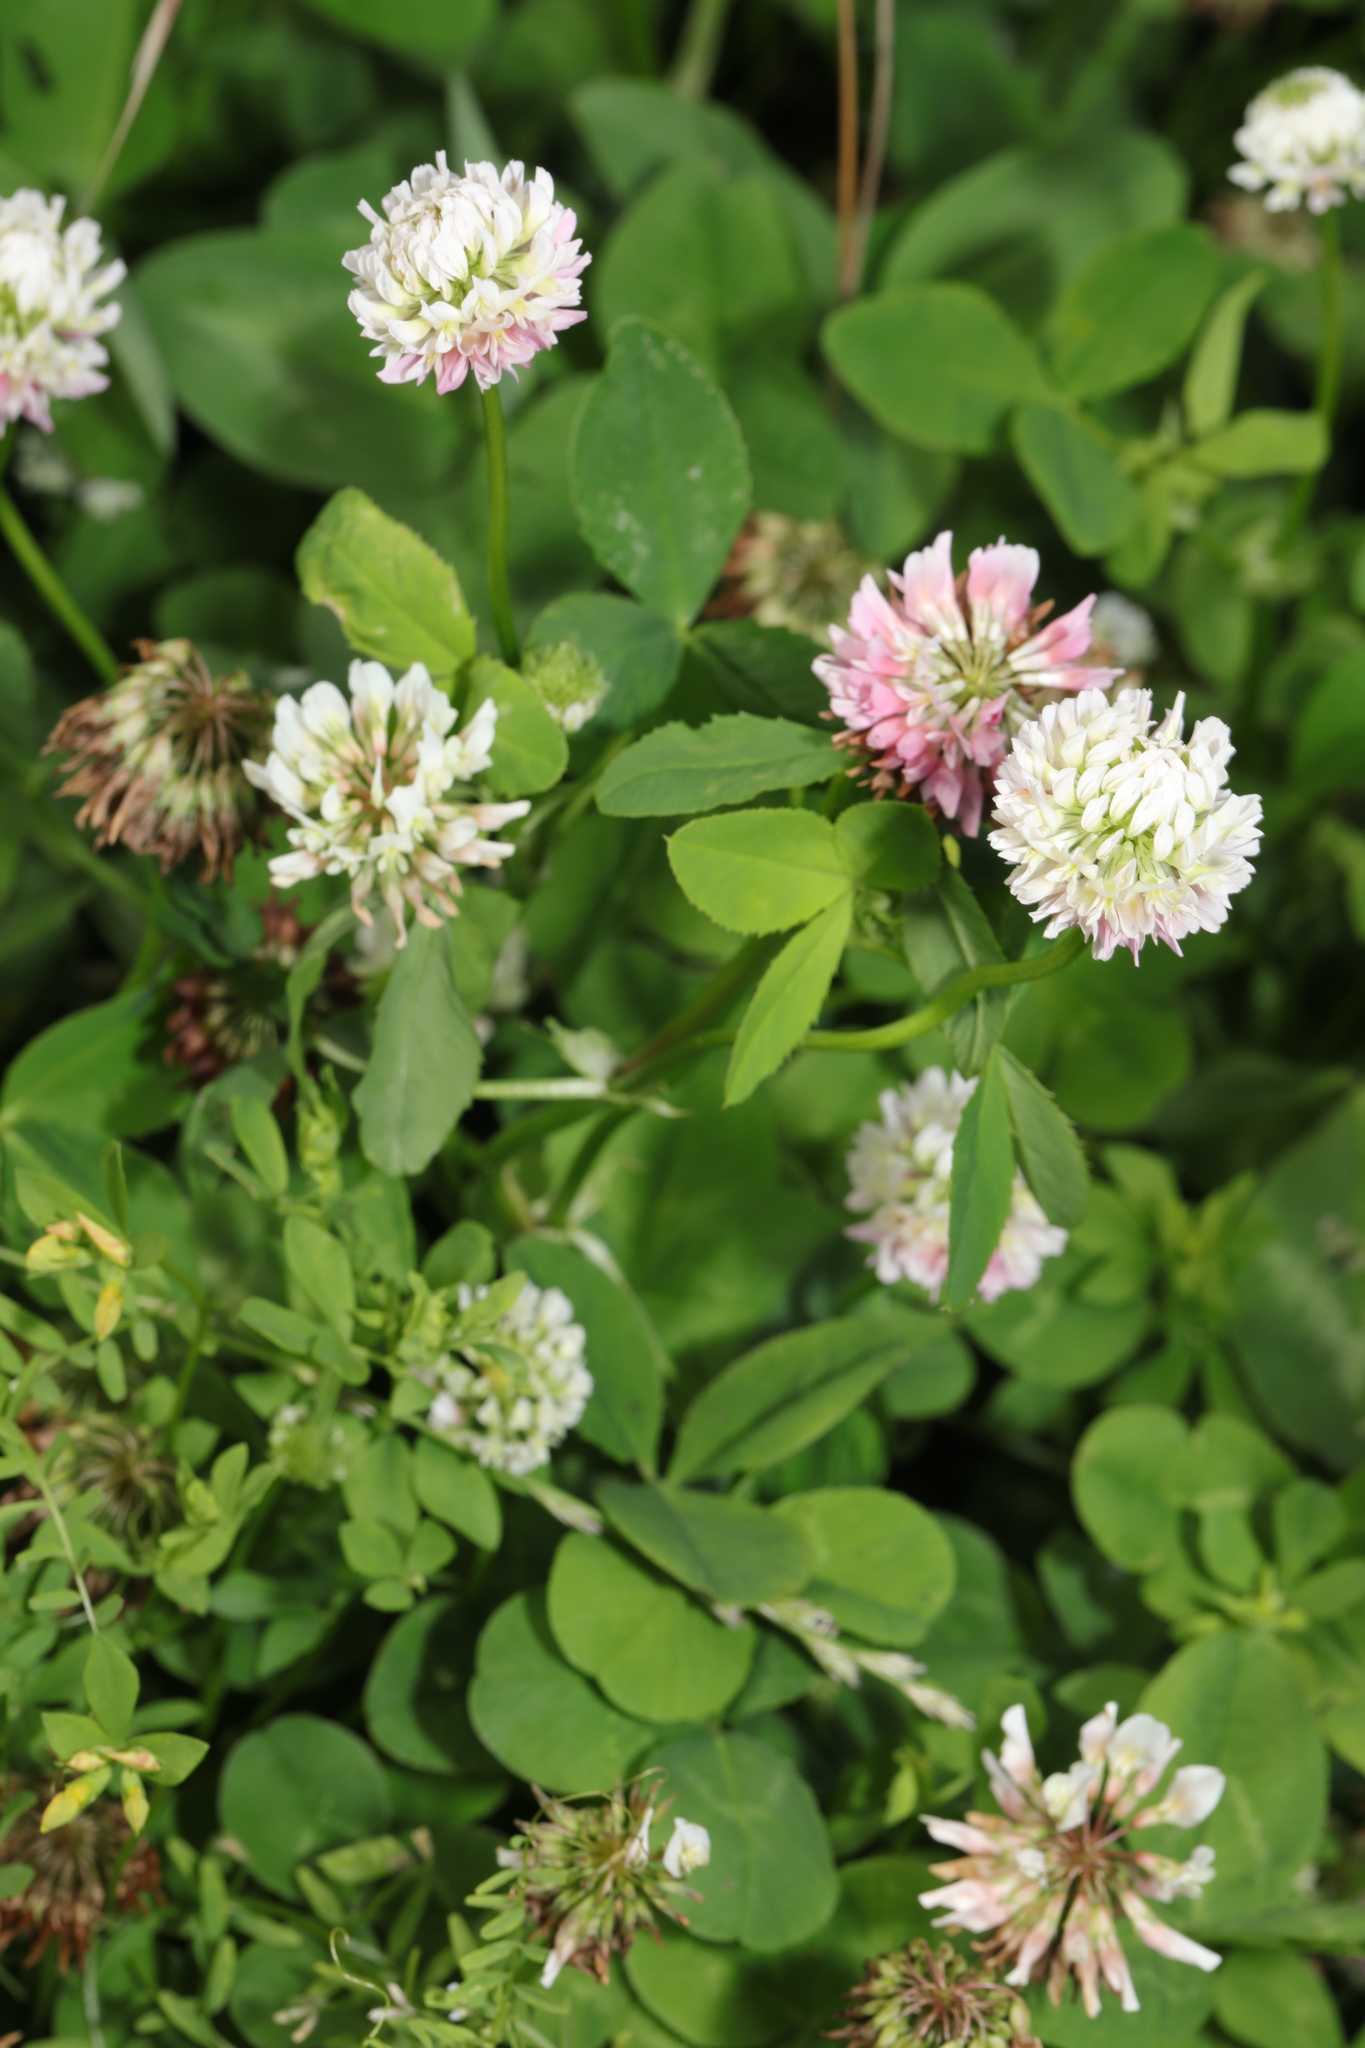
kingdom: Plantae
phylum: Tracheophyta
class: Magnoliopsida
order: Fabales
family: Fabaceae
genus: Trifolium
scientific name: Trifolium hybridum
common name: Alsike clover
